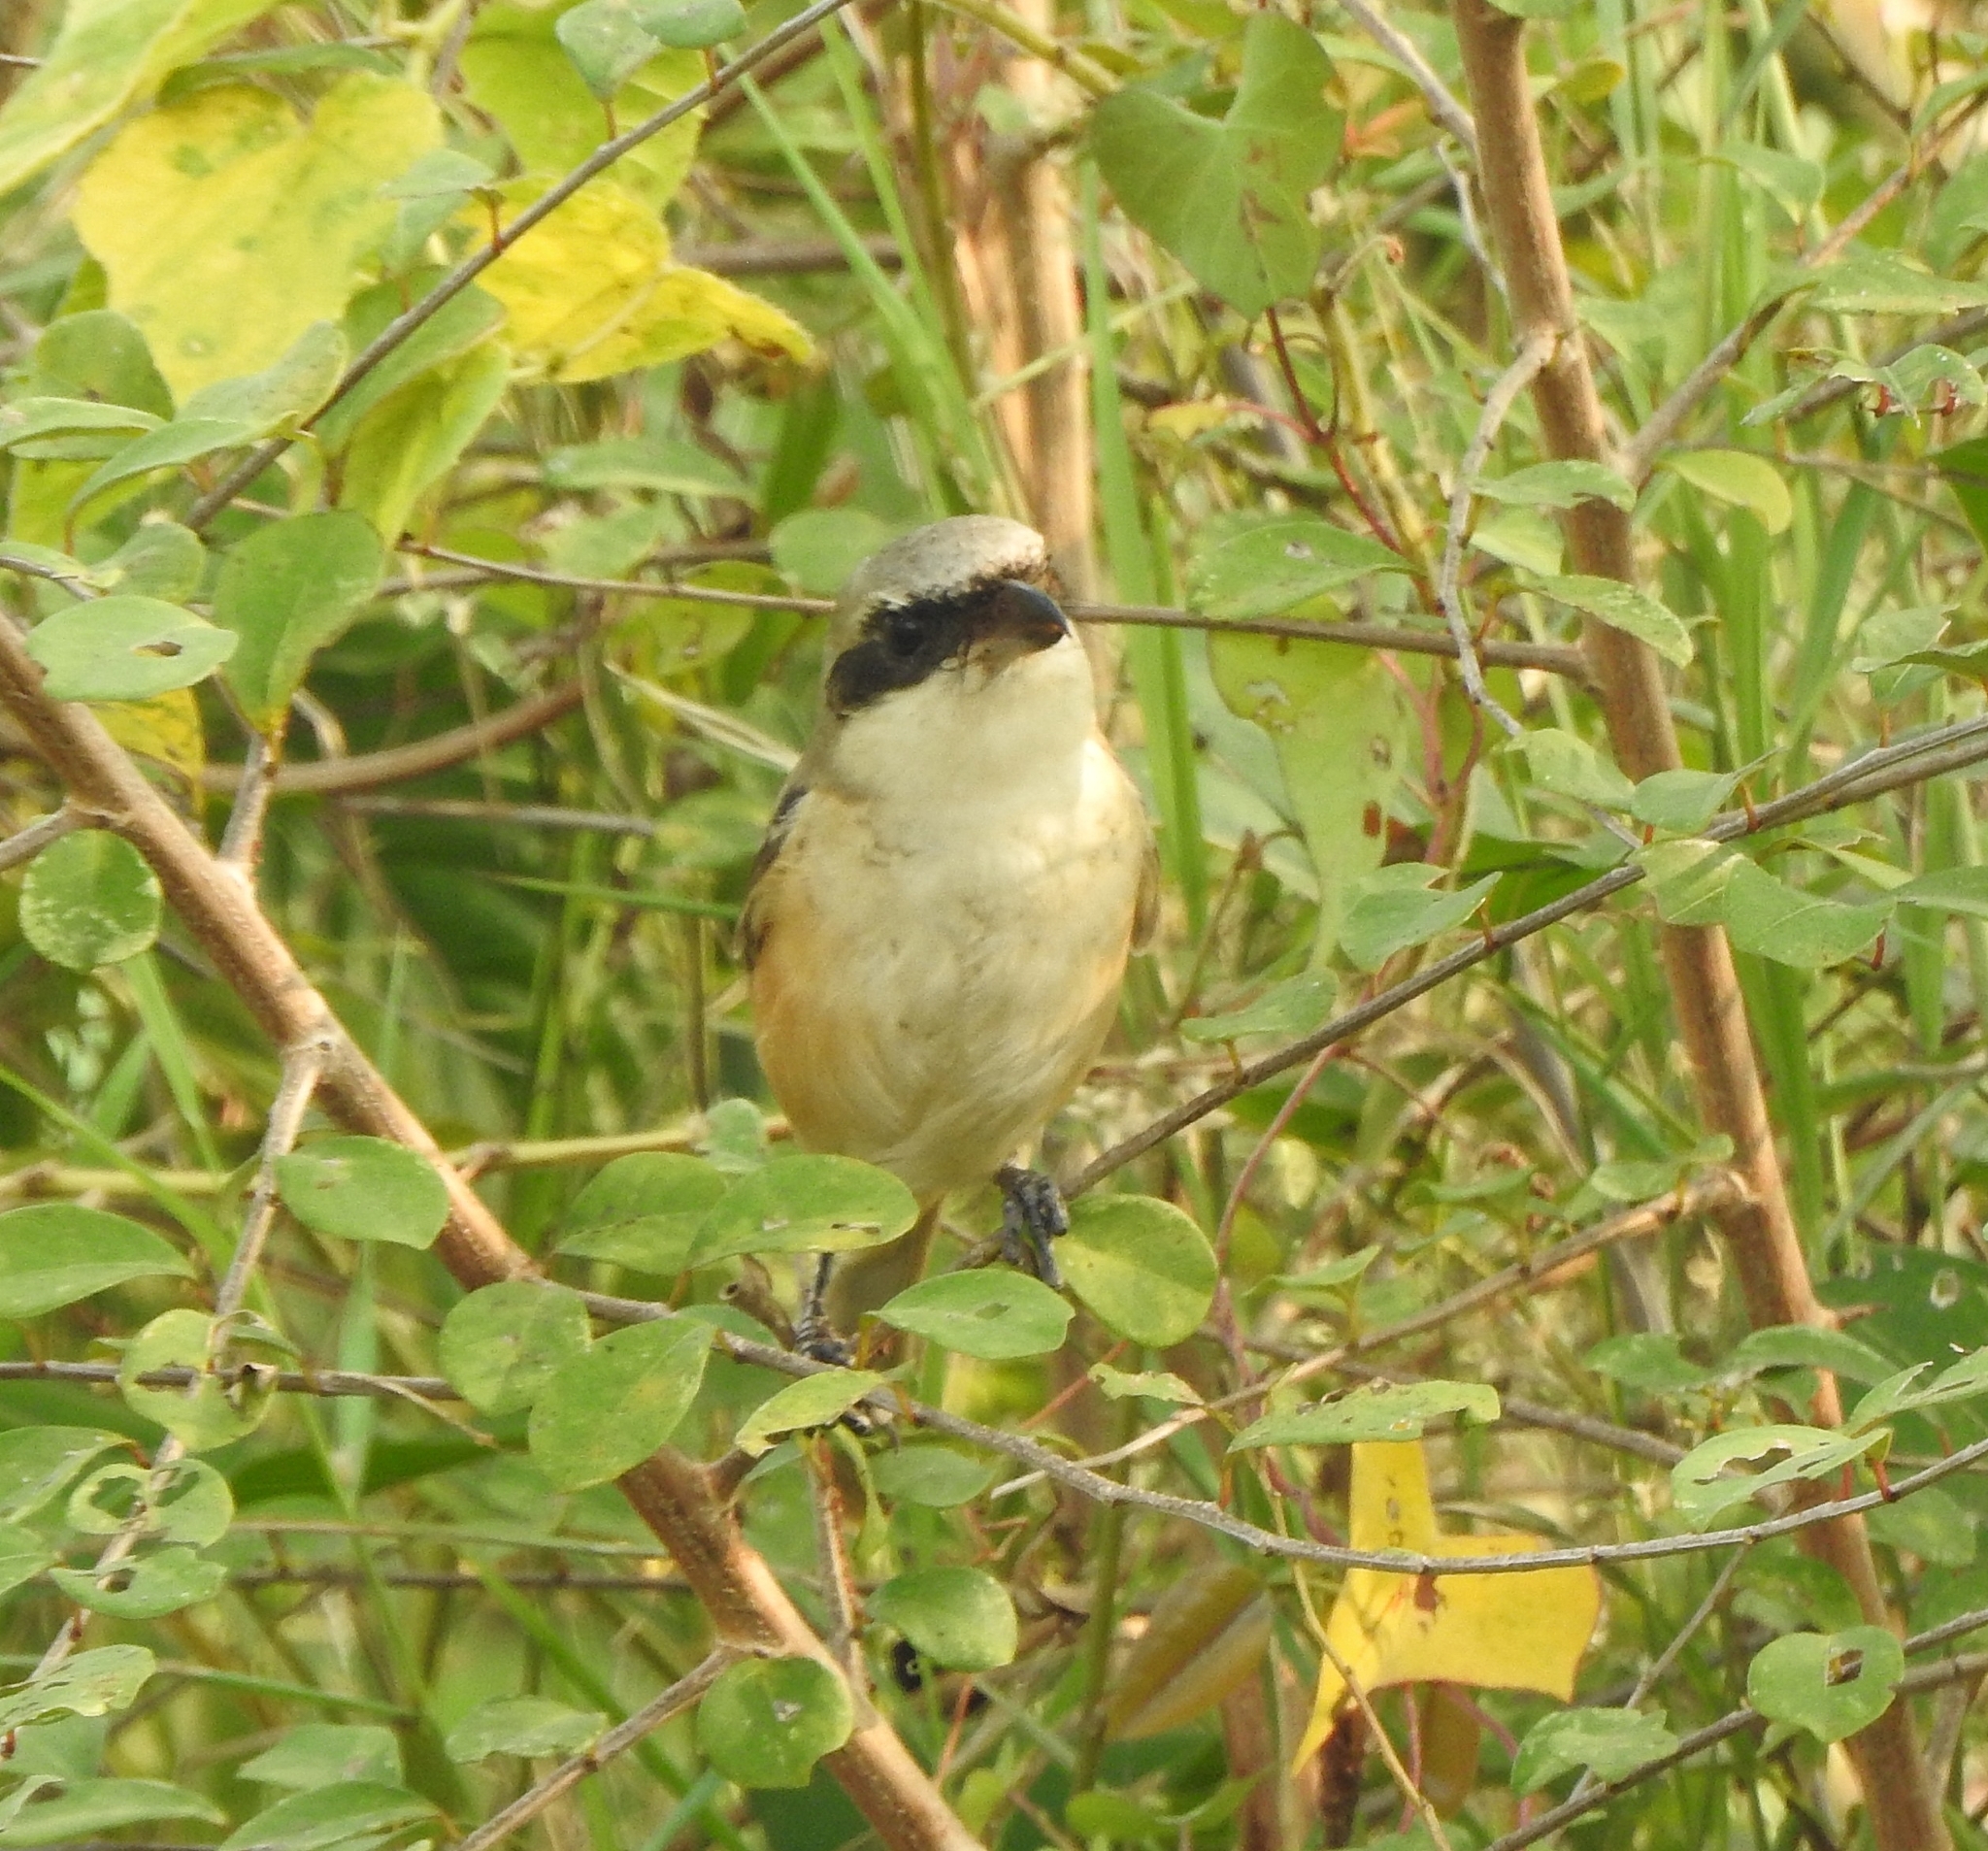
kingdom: Animalia
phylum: Chordata
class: Aves
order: Passeriformes
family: Laniidae
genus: Lanius
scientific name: Lanius schach
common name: Long-tailed shrike
